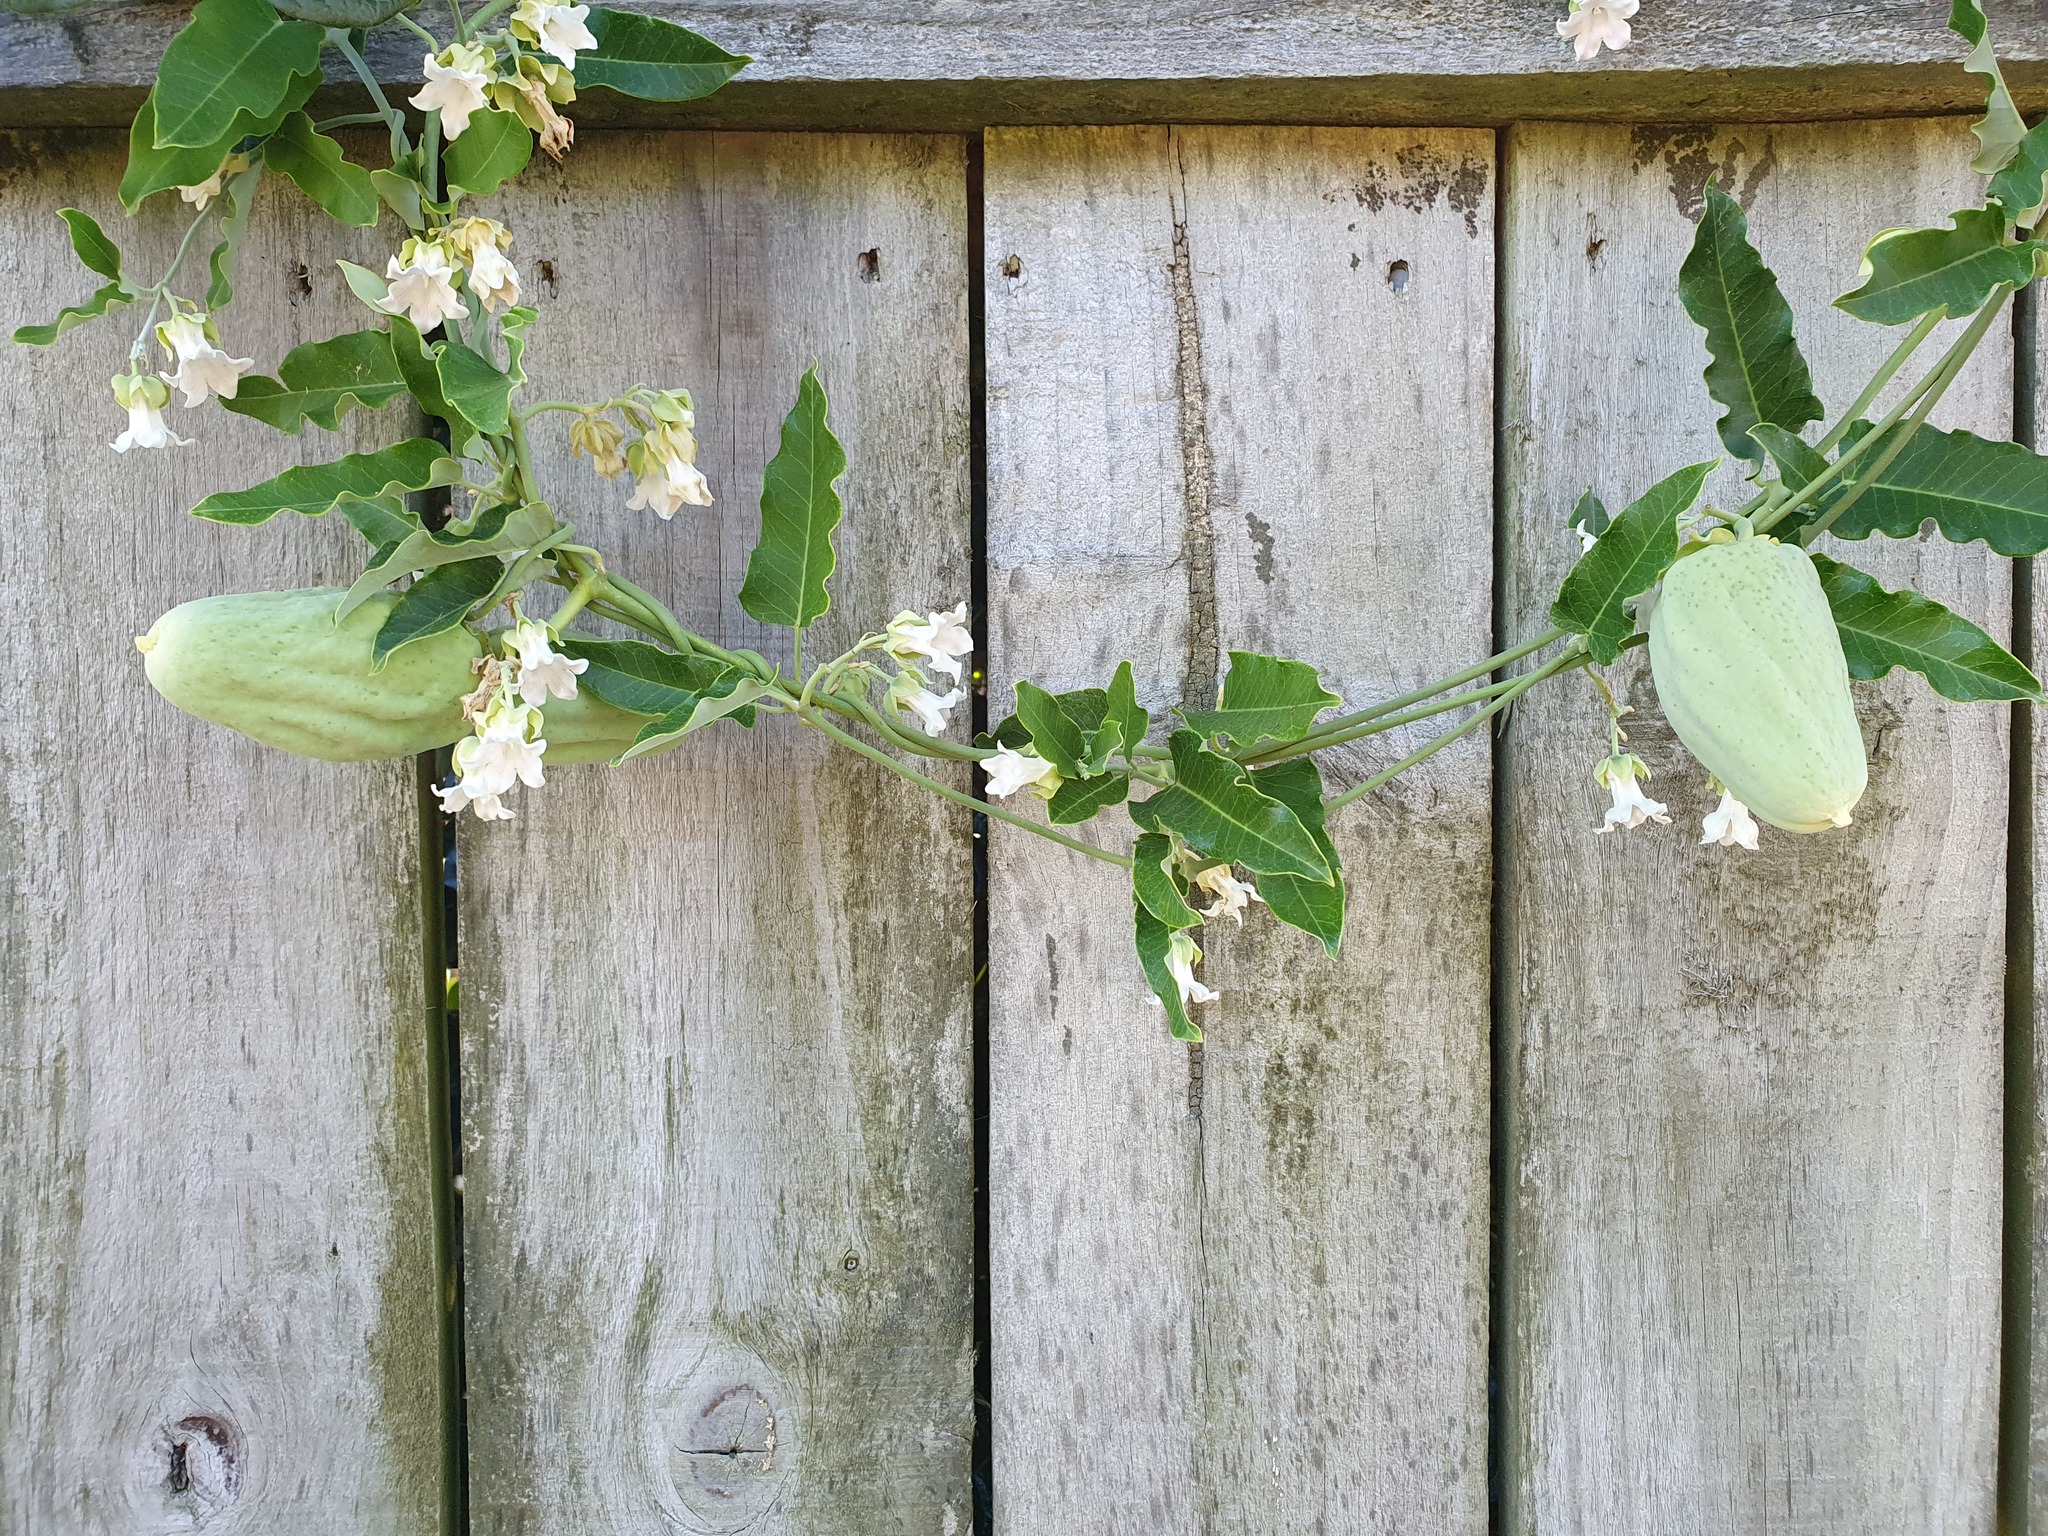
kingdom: Plantae
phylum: Tracheophyta
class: Magnoliopsida
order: Gentianales
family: Apocynaceae
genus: Araujia
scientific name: Araujia sericifera
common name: White bladderflower
